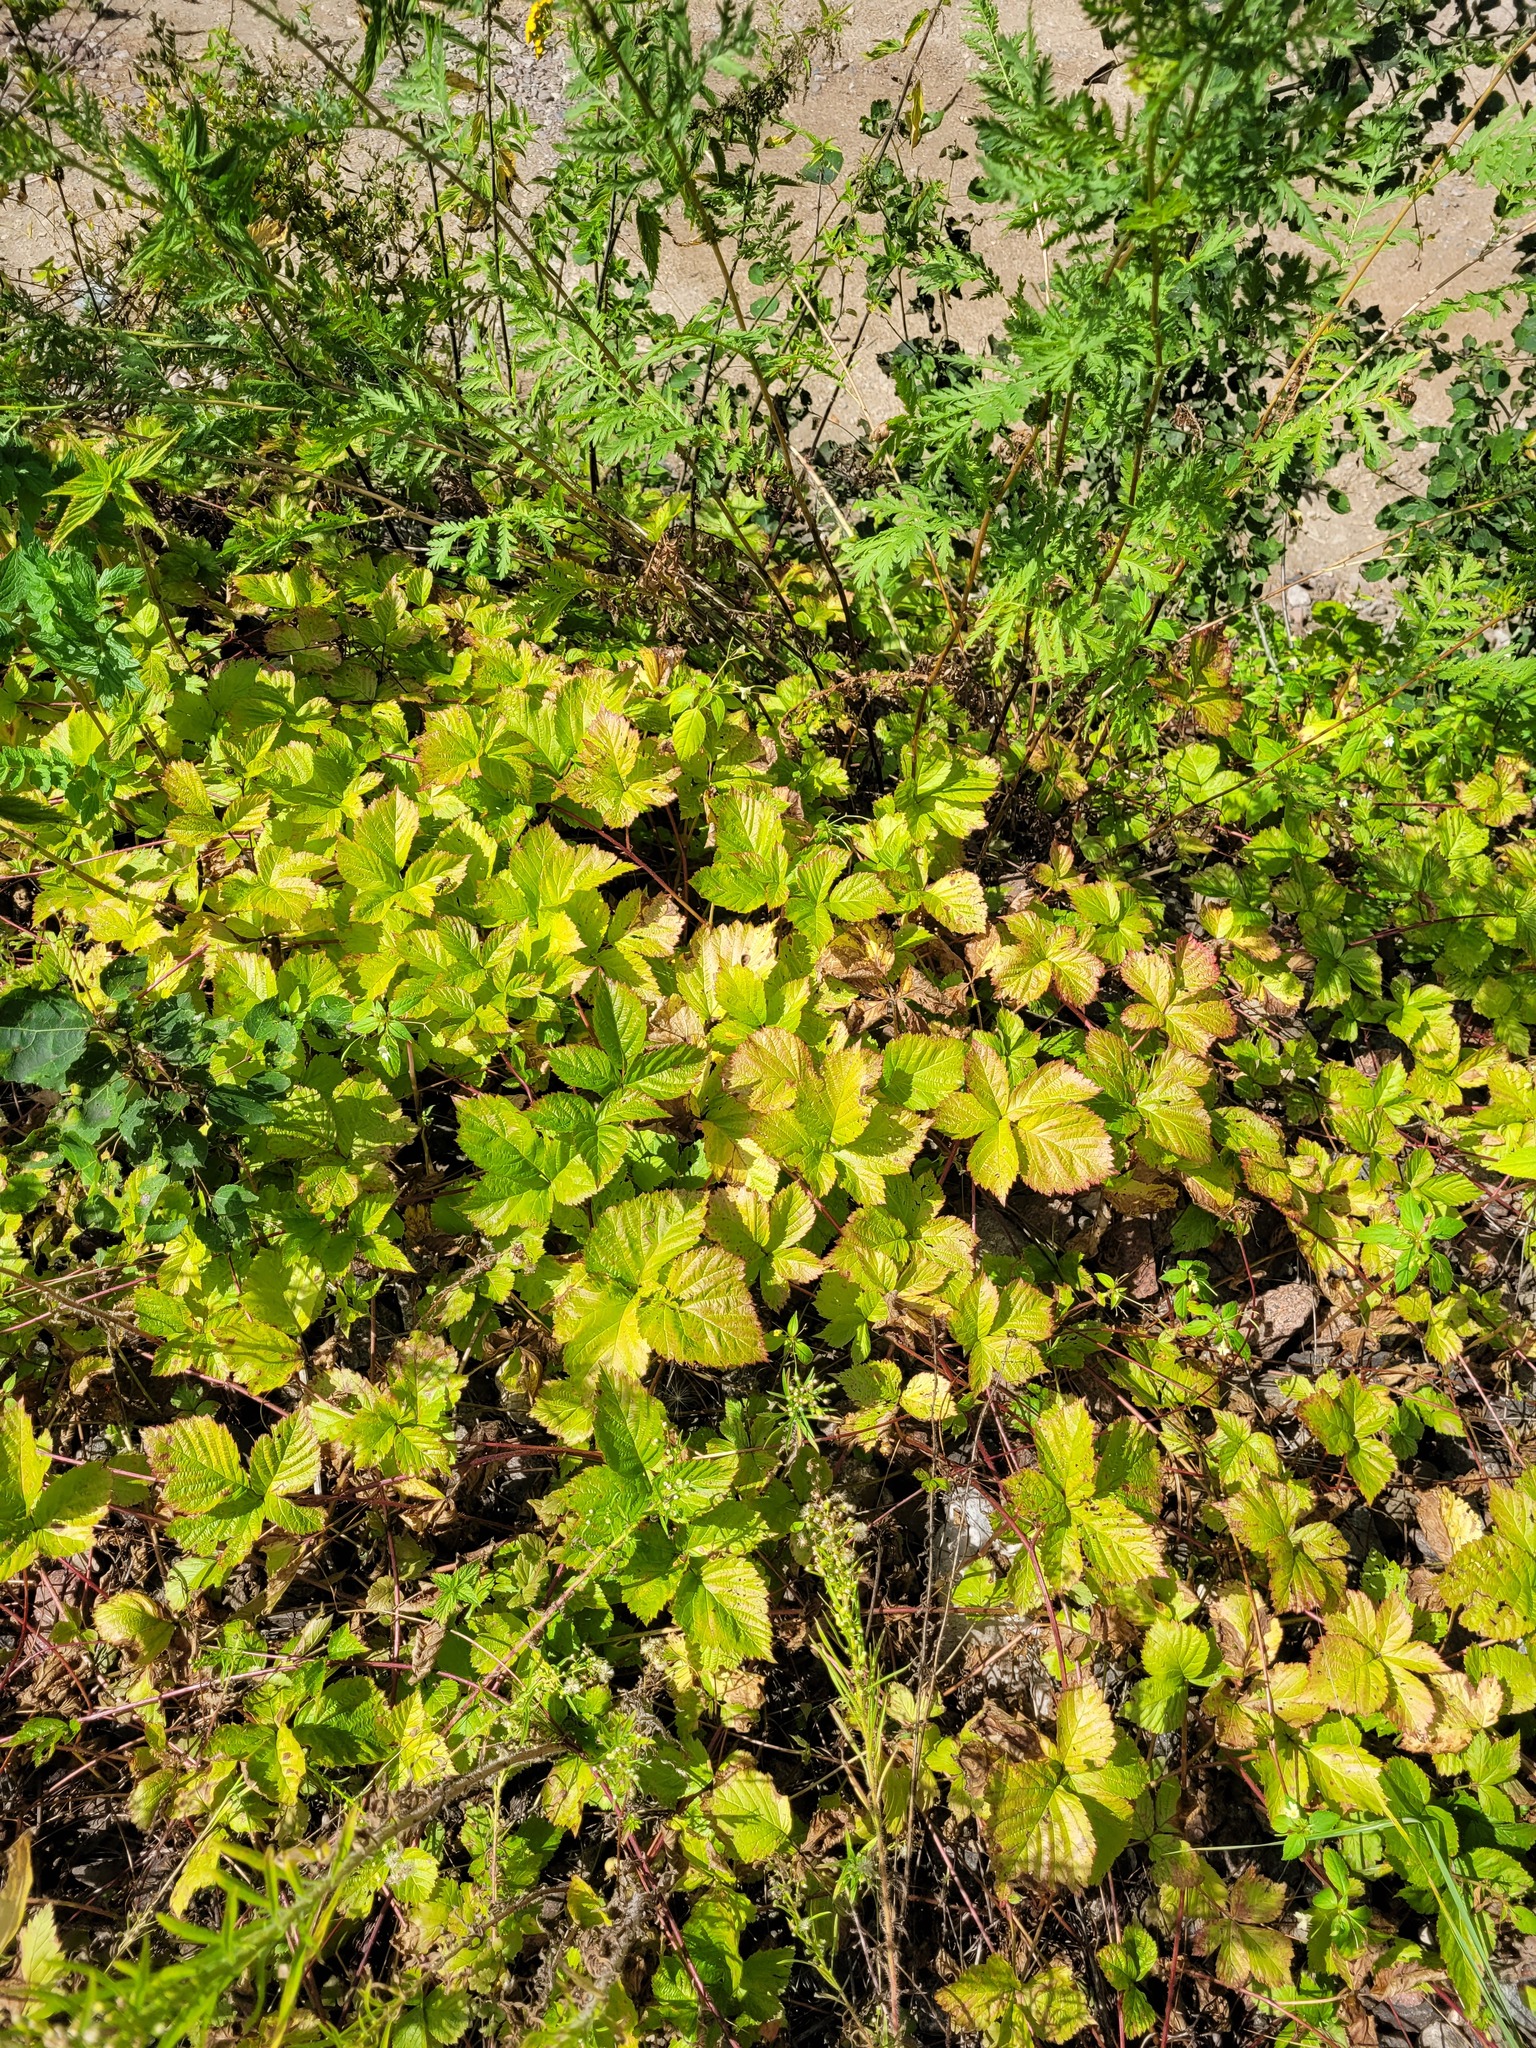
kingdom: Plantae
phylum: Tracheophyta
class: Magnoliopsida
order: Rosales
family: Rosaceae
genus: Rubus
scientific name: Rubus saxatilis
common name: Stone bramble
